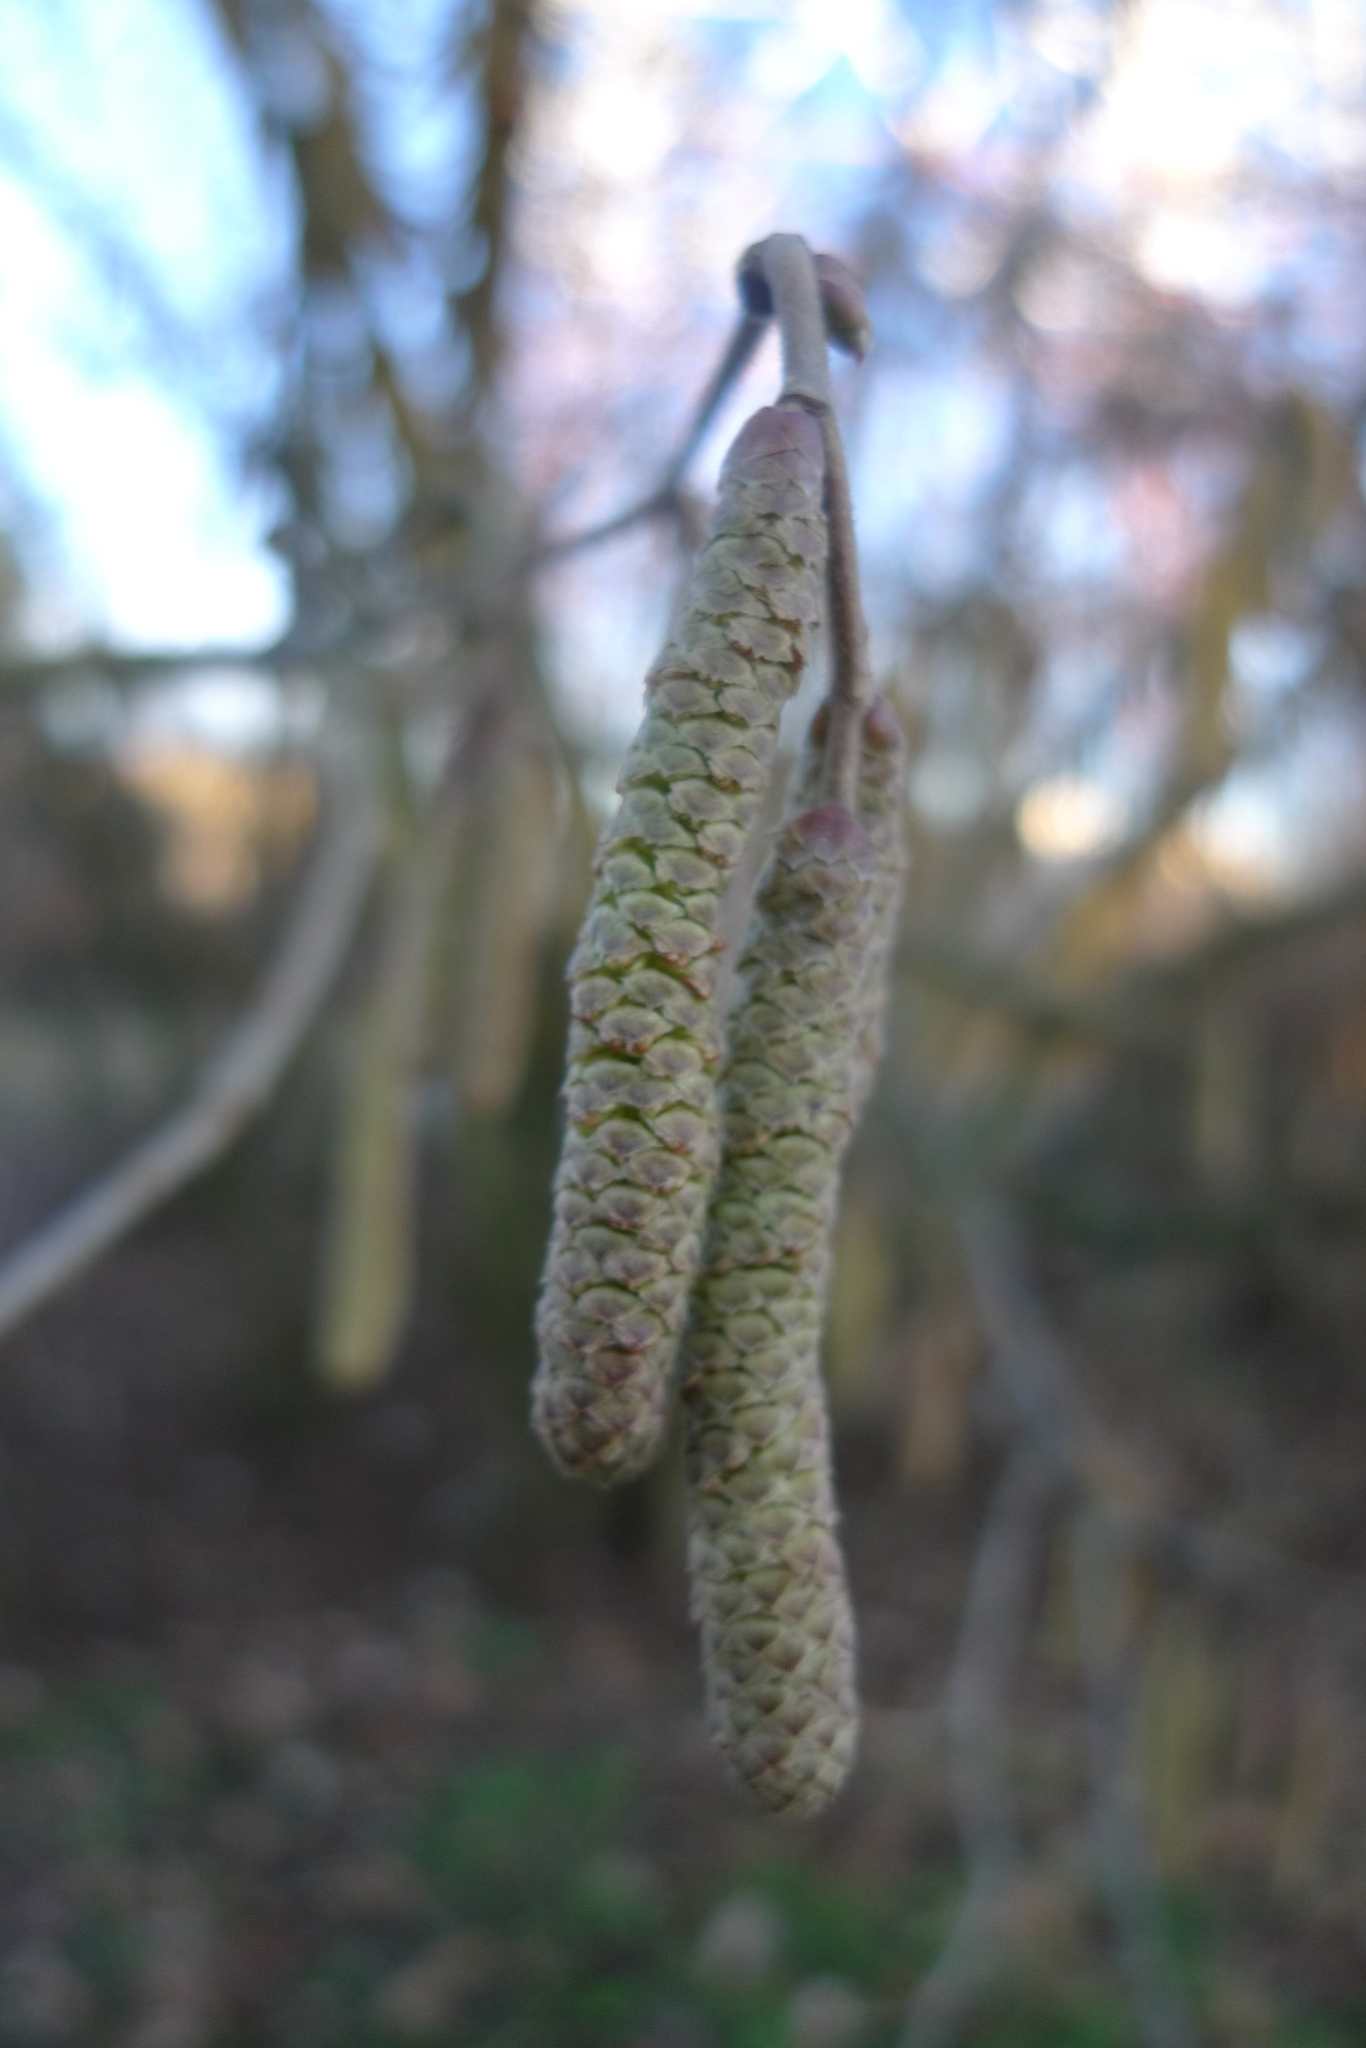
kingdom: Plantae
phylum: Tracheophyta
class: Magnoliopsida
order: Fagales
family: Betulaceae
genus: Corylus
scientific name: Corylus avellana
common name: European hazel
